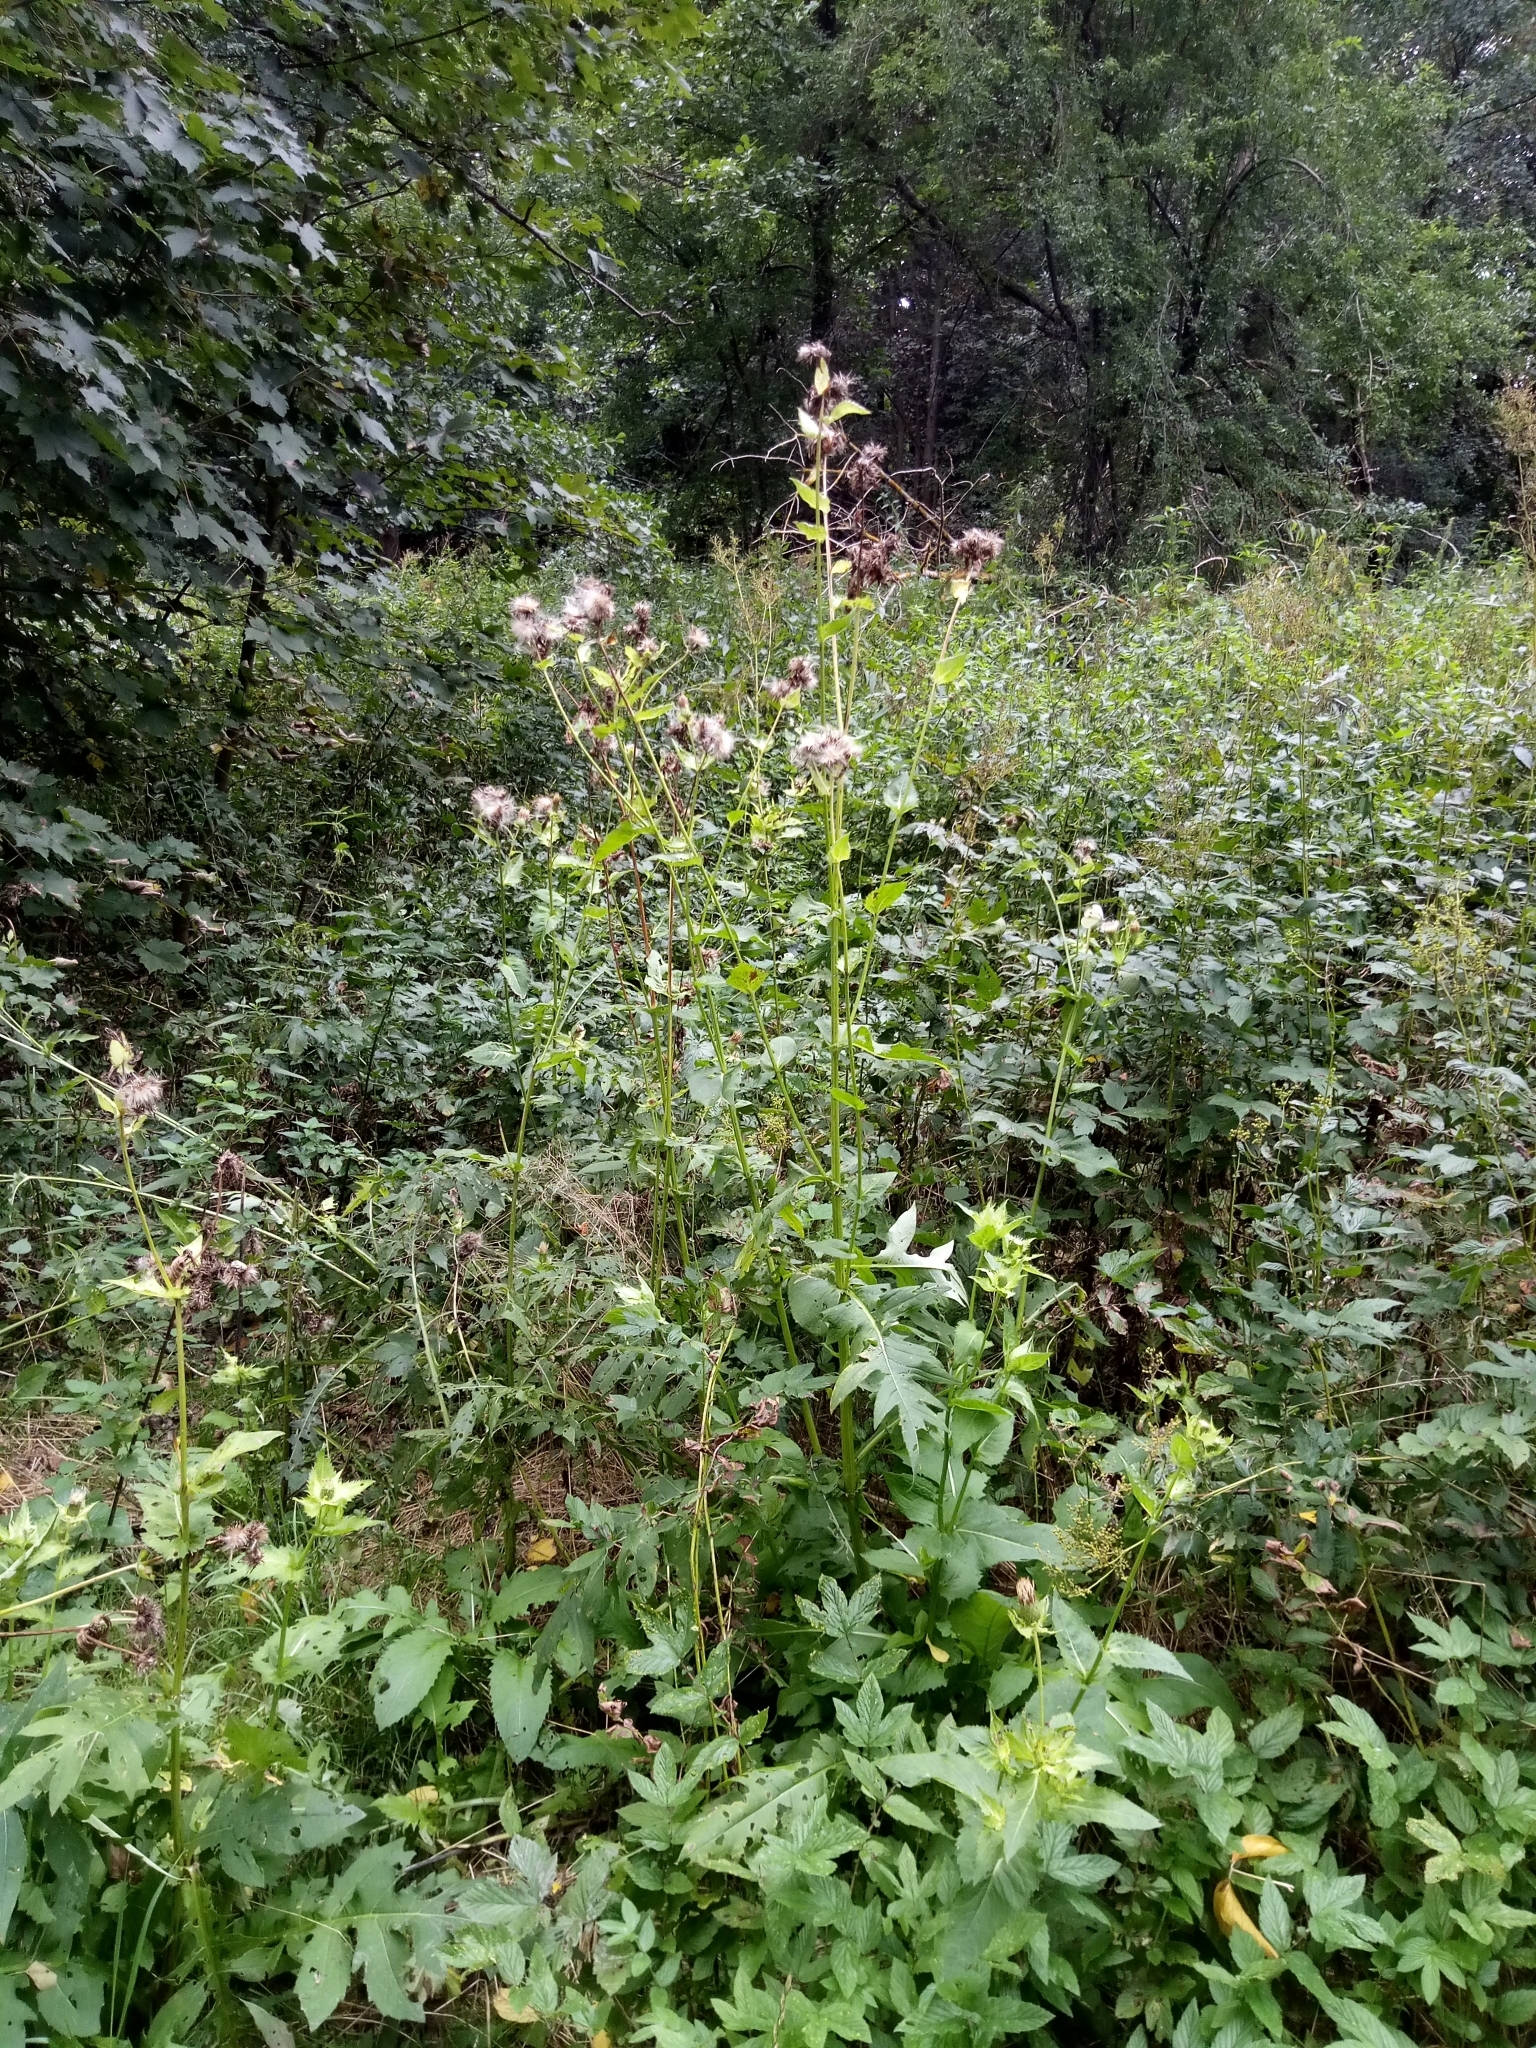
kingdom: Plantae
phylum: Tracheophyta
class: Magnoliopsida
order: Asterales
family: Asteraceae
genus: Cirsium
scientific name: Cirsium oleraceum
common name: Cabbage thistle
